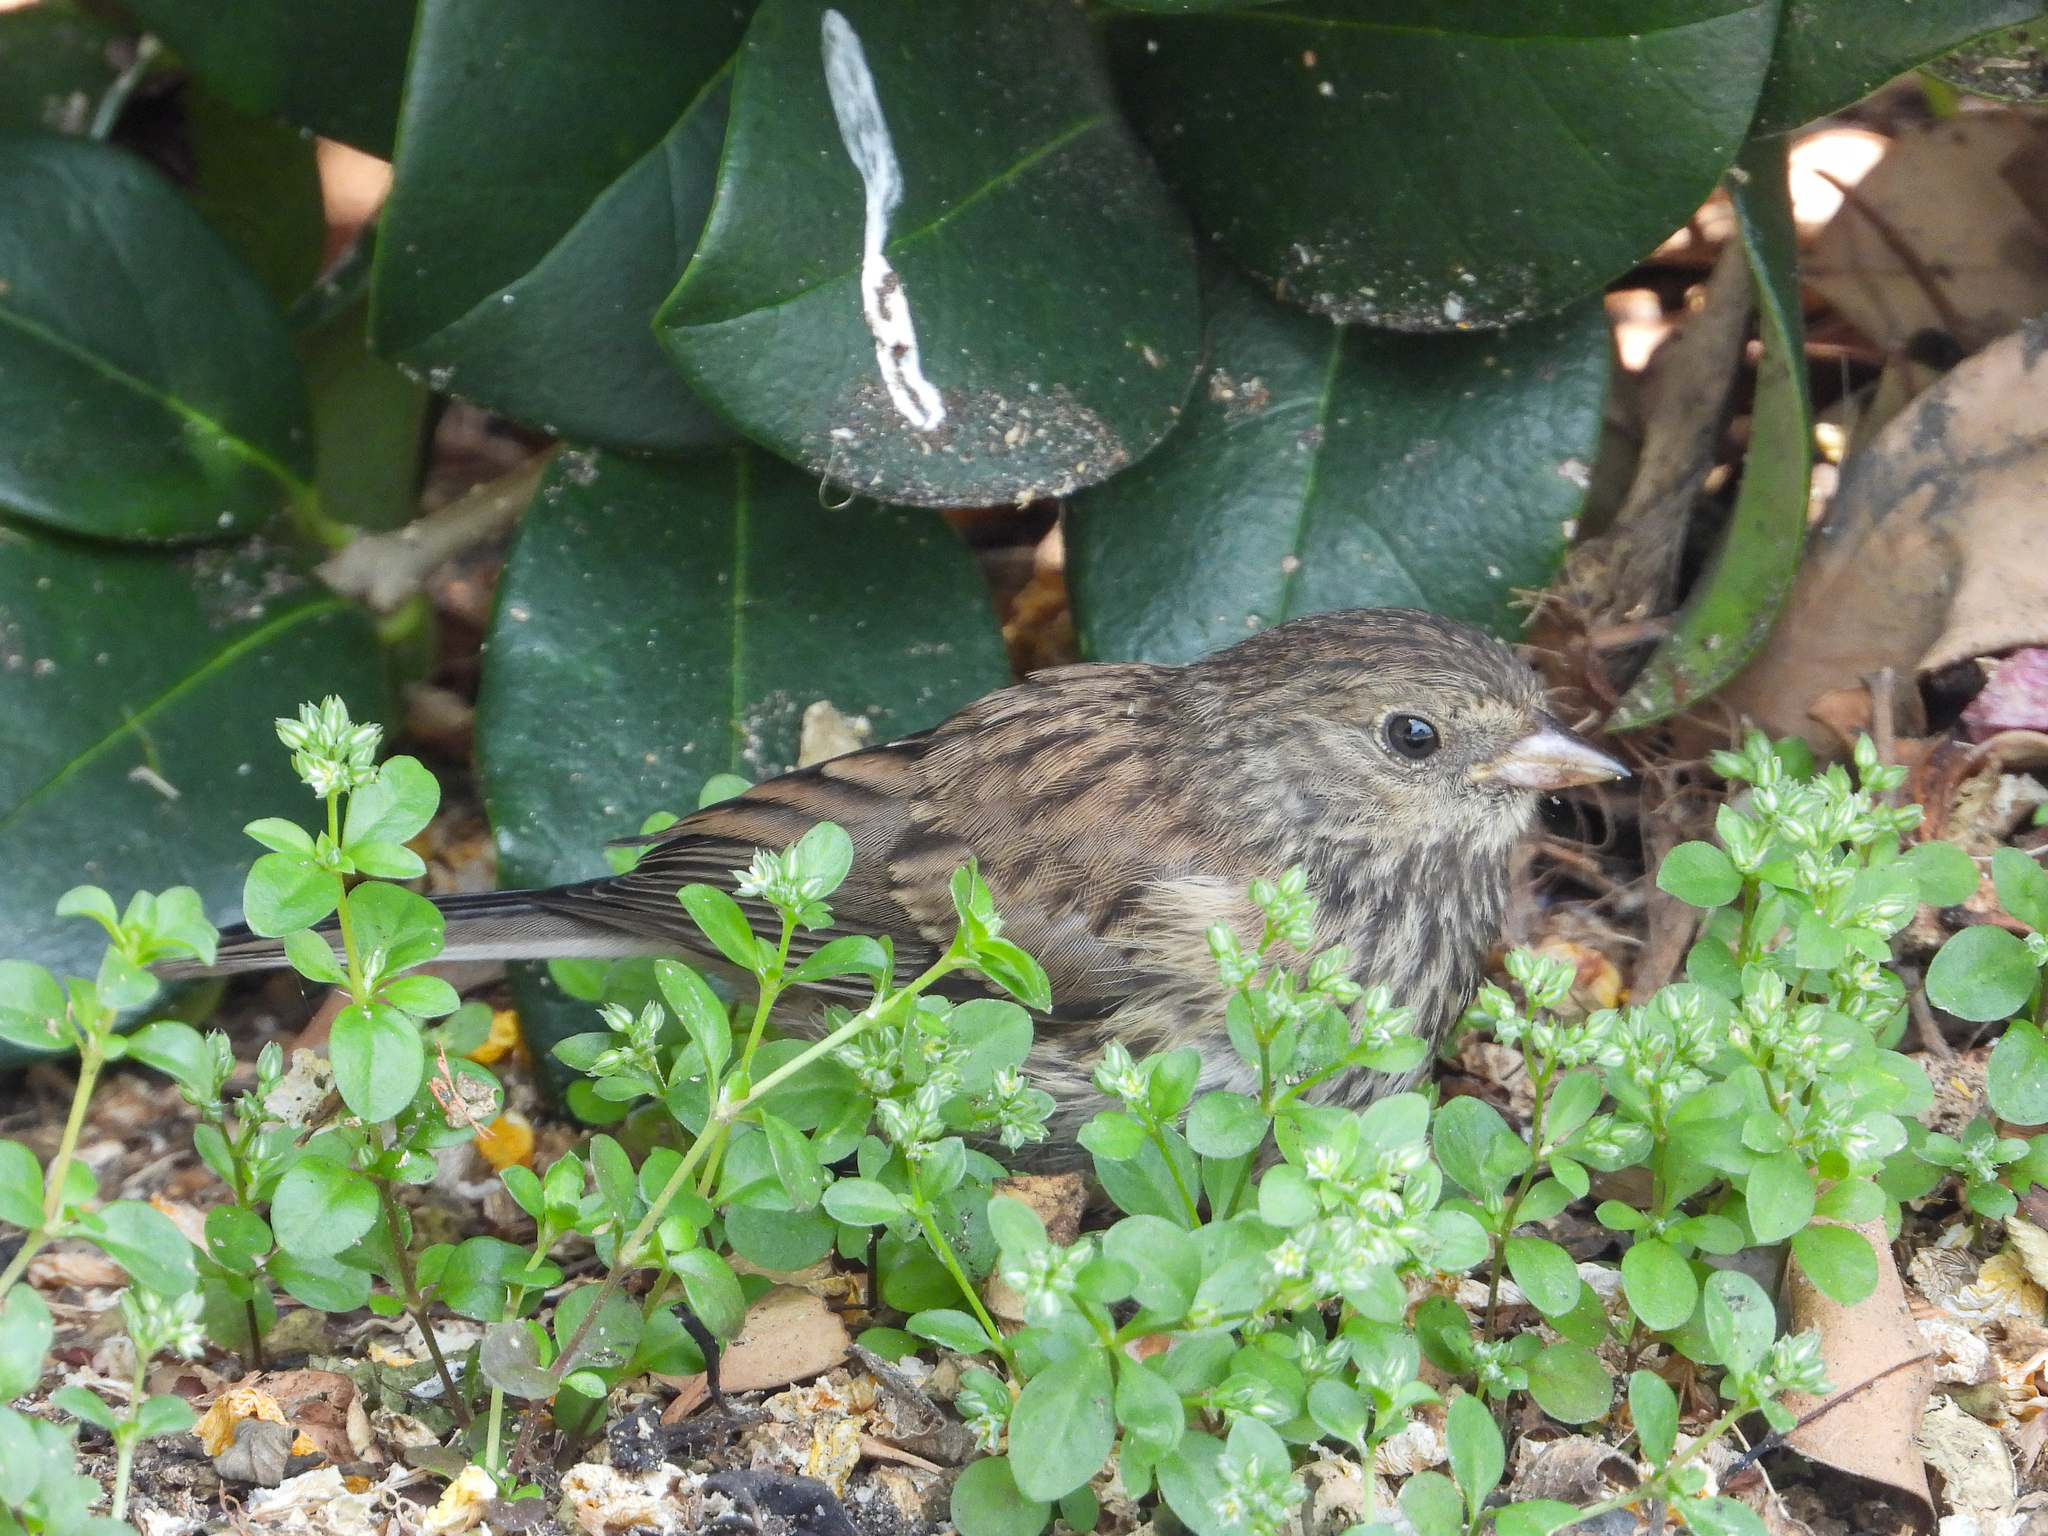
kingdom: Animalia
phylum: Chordata
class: Aves
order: Passeriformes
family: Passerellidae
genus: Junco
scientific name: Junco hyemalis
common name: Dark-eyed junco
